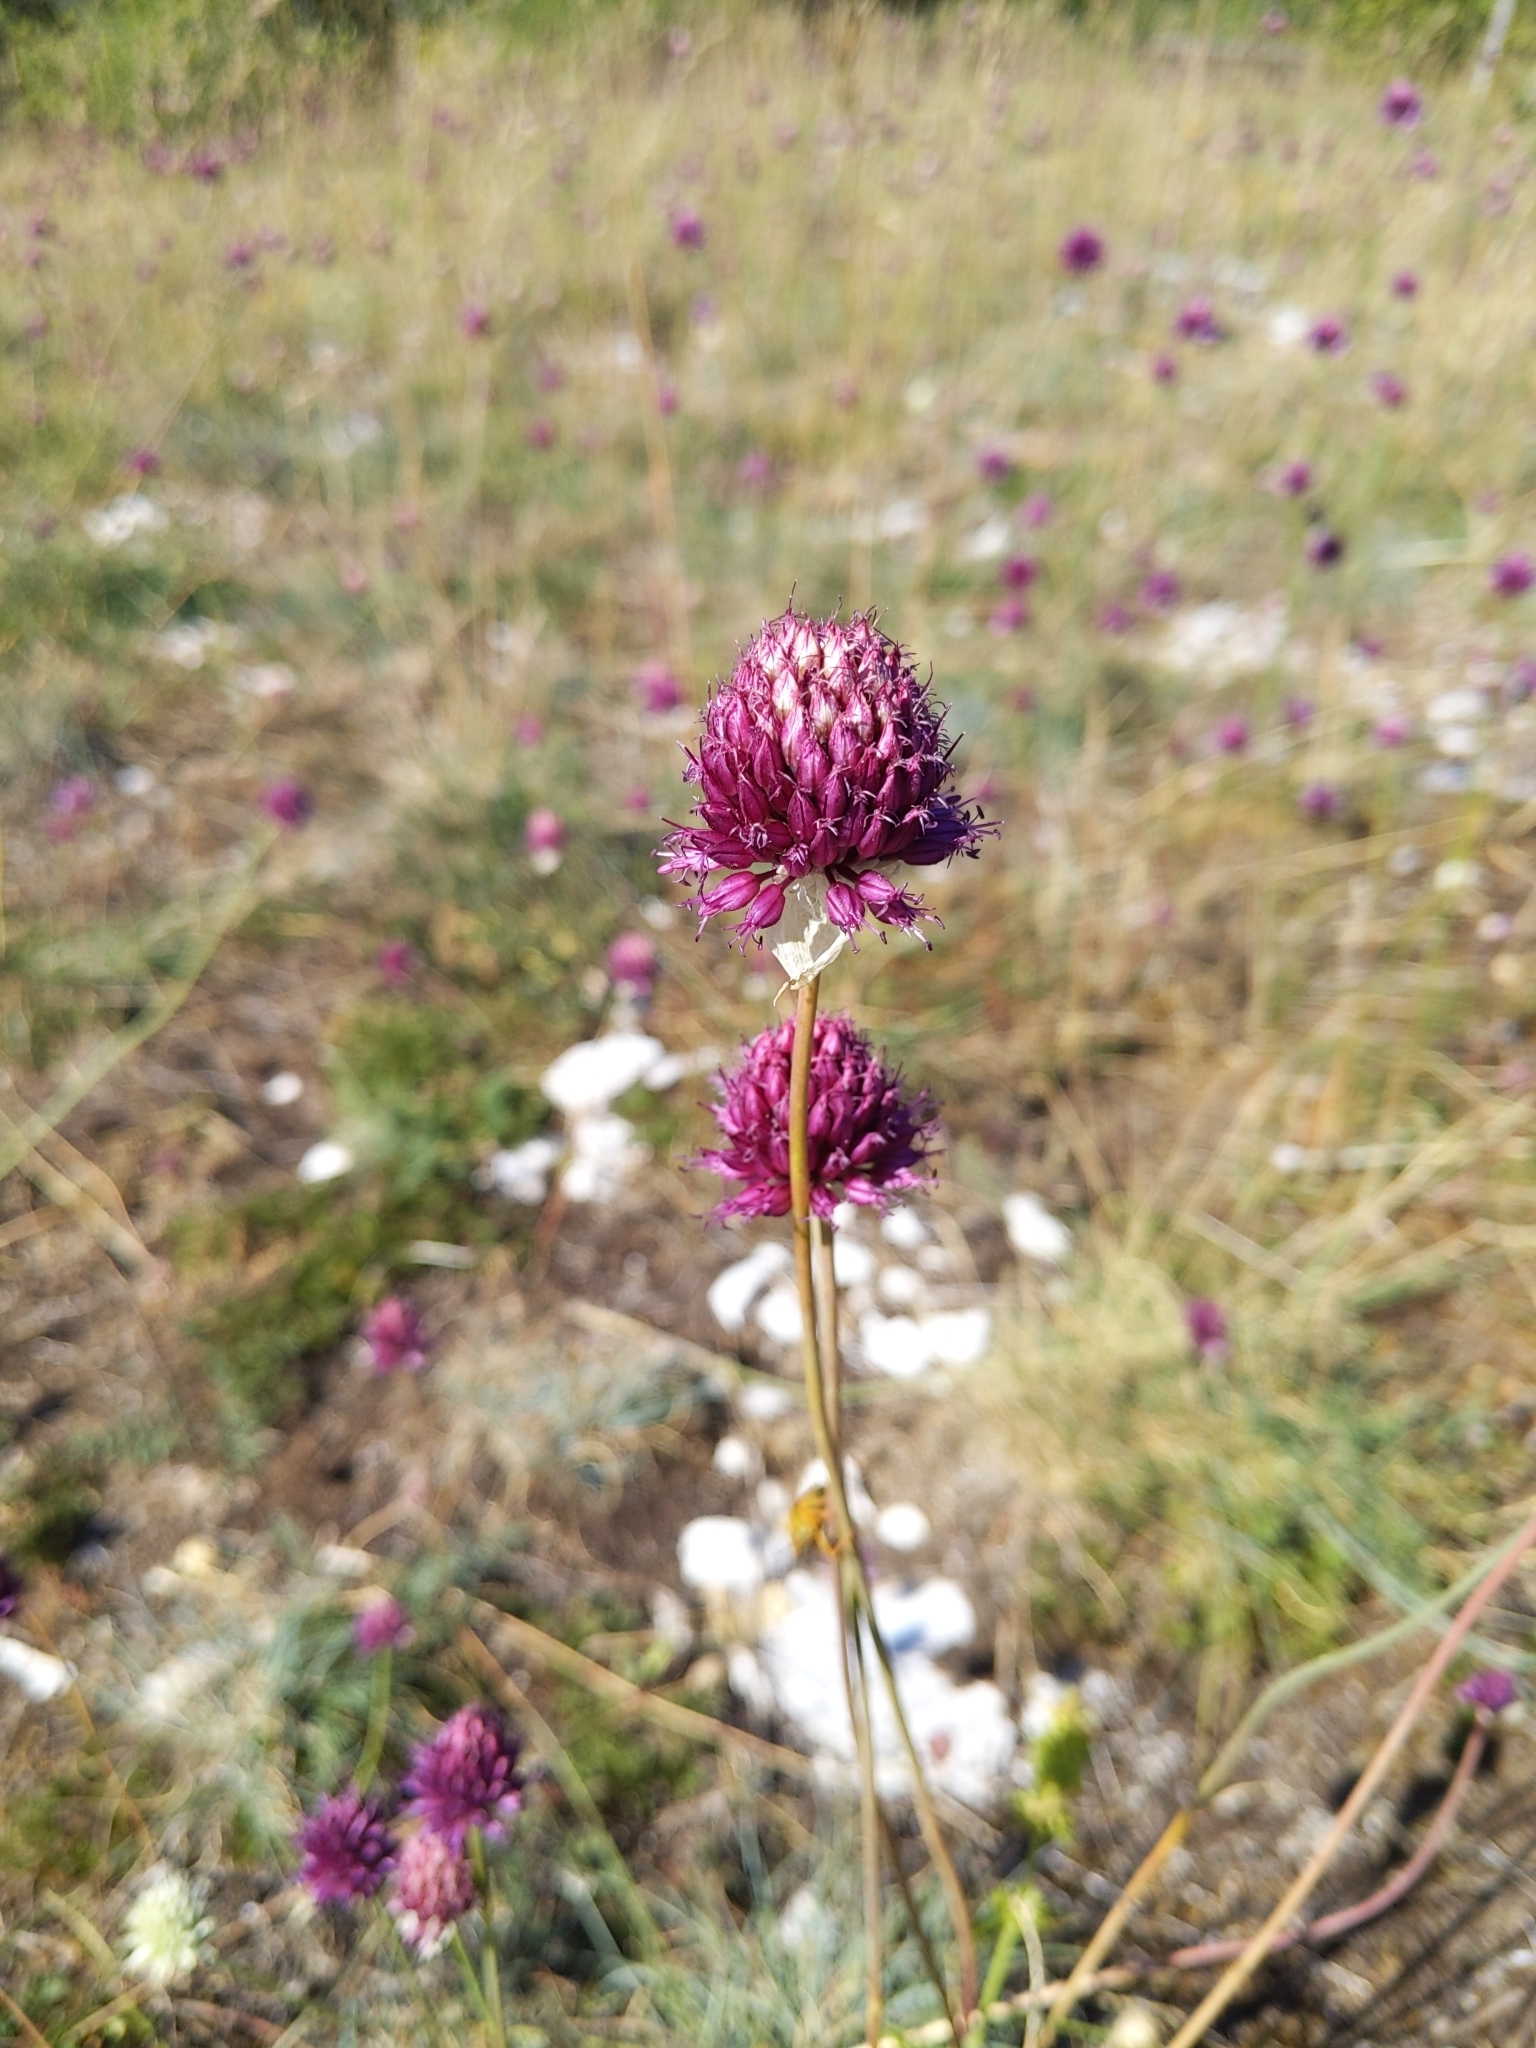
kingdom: Plantae
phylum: Tracheophyta
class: Liliopsida
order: Asparagales
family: Amaryllidaceae
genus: Allium
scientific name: Allium sphaerocephalon
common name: Round-headed leek
